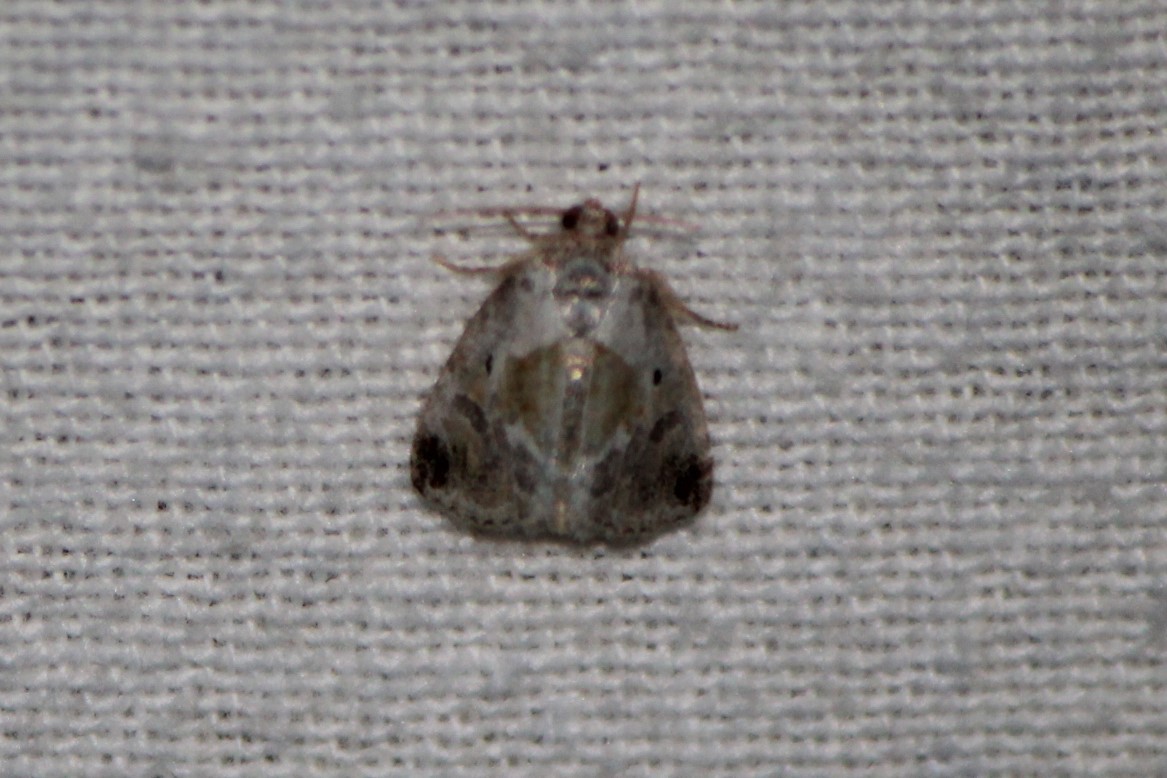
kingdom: Animalia
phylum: Arthropoda
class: Insecta
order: Lepidoptera
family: Noctuidae
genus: Maliattha
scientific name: Maliattha synochitis
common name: Black-dotted glyph
